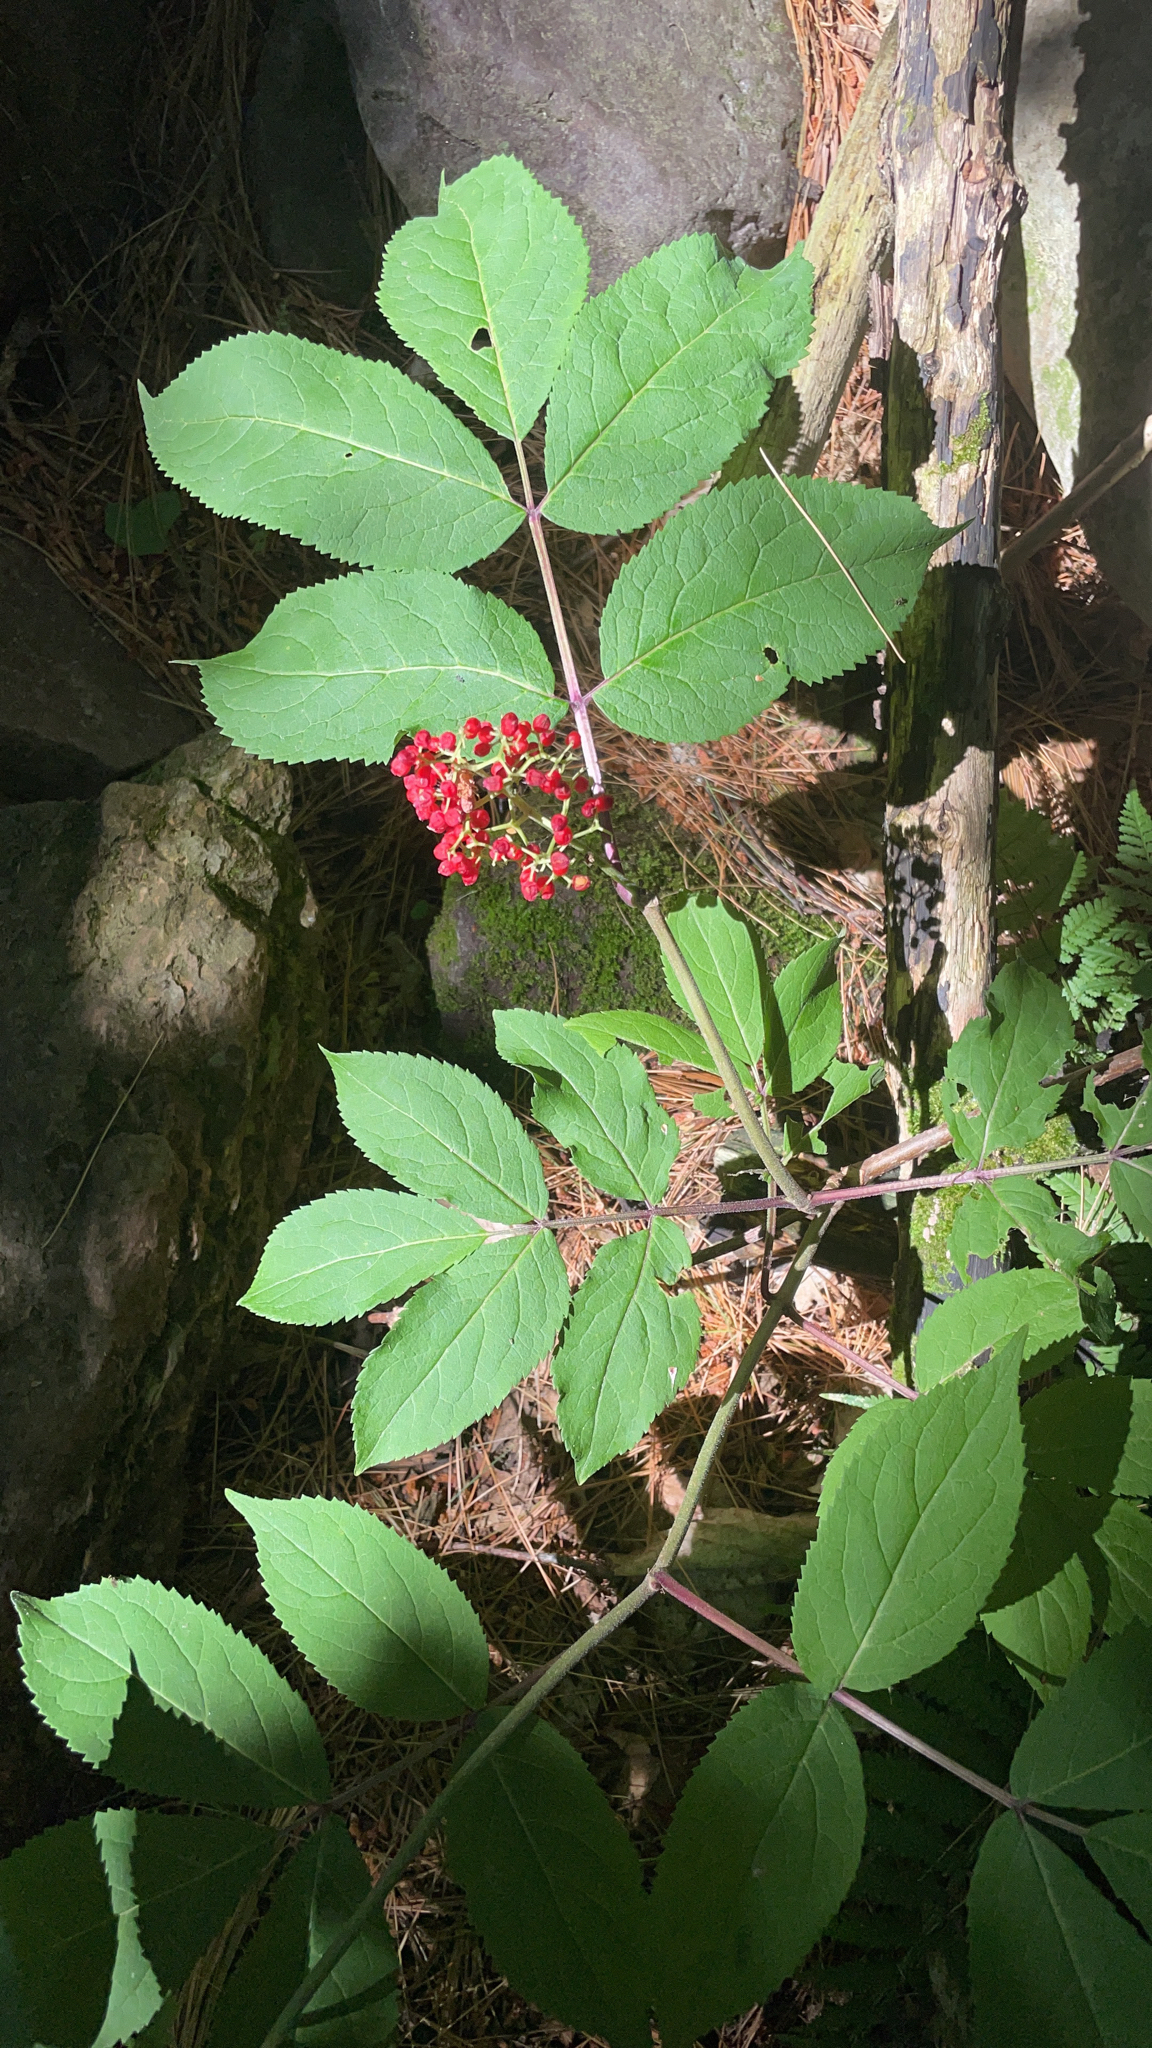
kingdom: Plantae
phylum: Tracheophyta
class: Magnoliopsida
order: Dipsacales
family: Viburnaceae
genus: Sambucus
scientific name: Sambucus racemosa
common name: Red-berried elder
